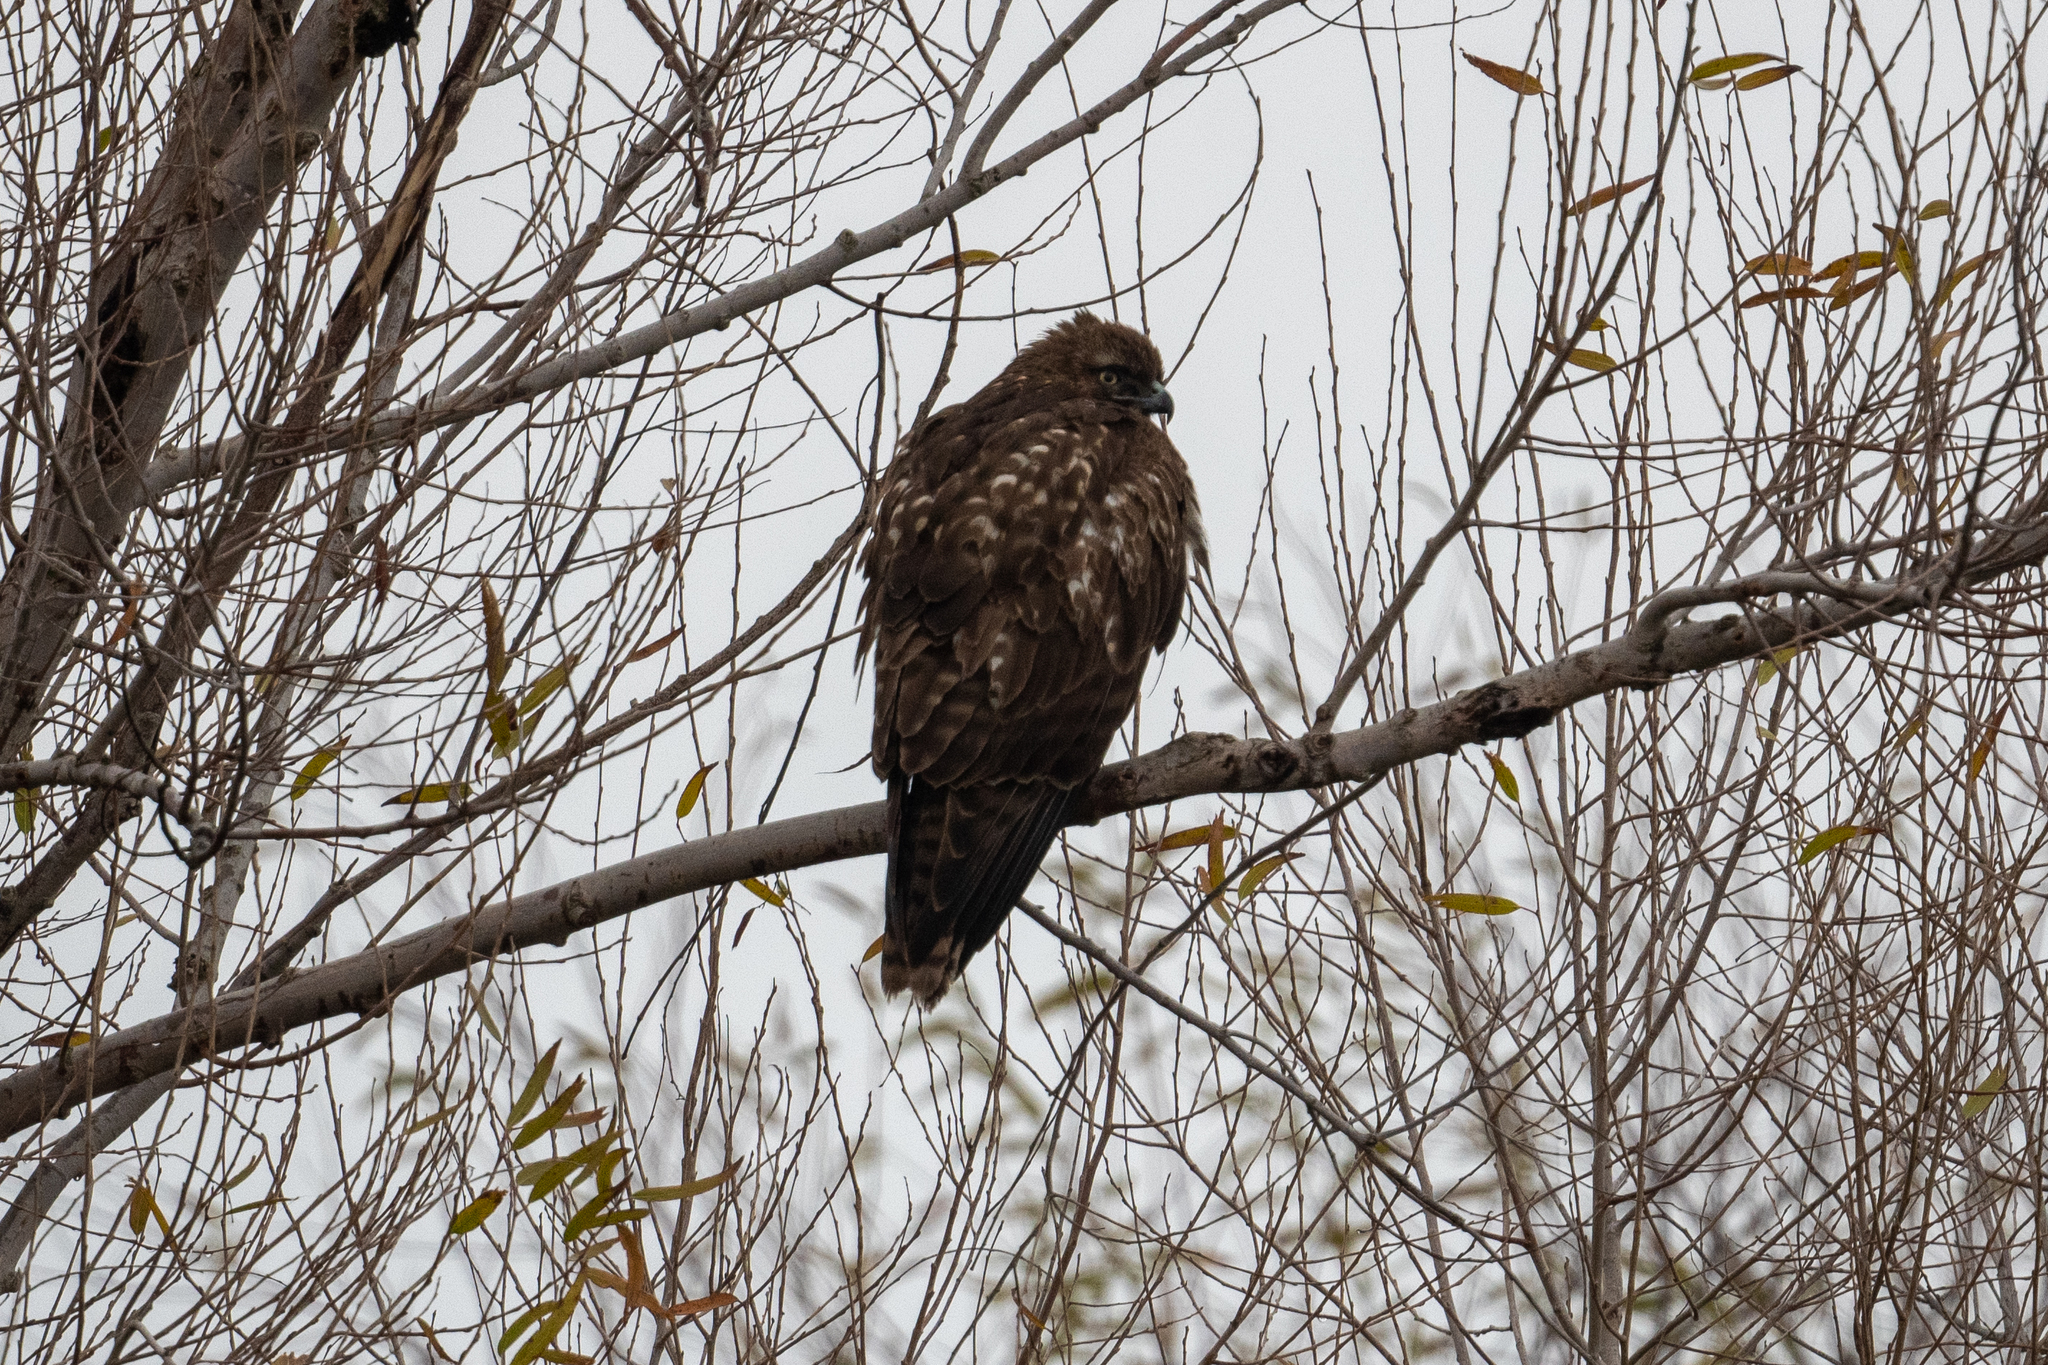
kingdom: Animalia
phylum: Chordata
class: Aves
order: Accipitriformes
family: Accipitridae
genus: Buteo
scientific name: Buteo jamaicensis
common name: Red-tailed hawk
